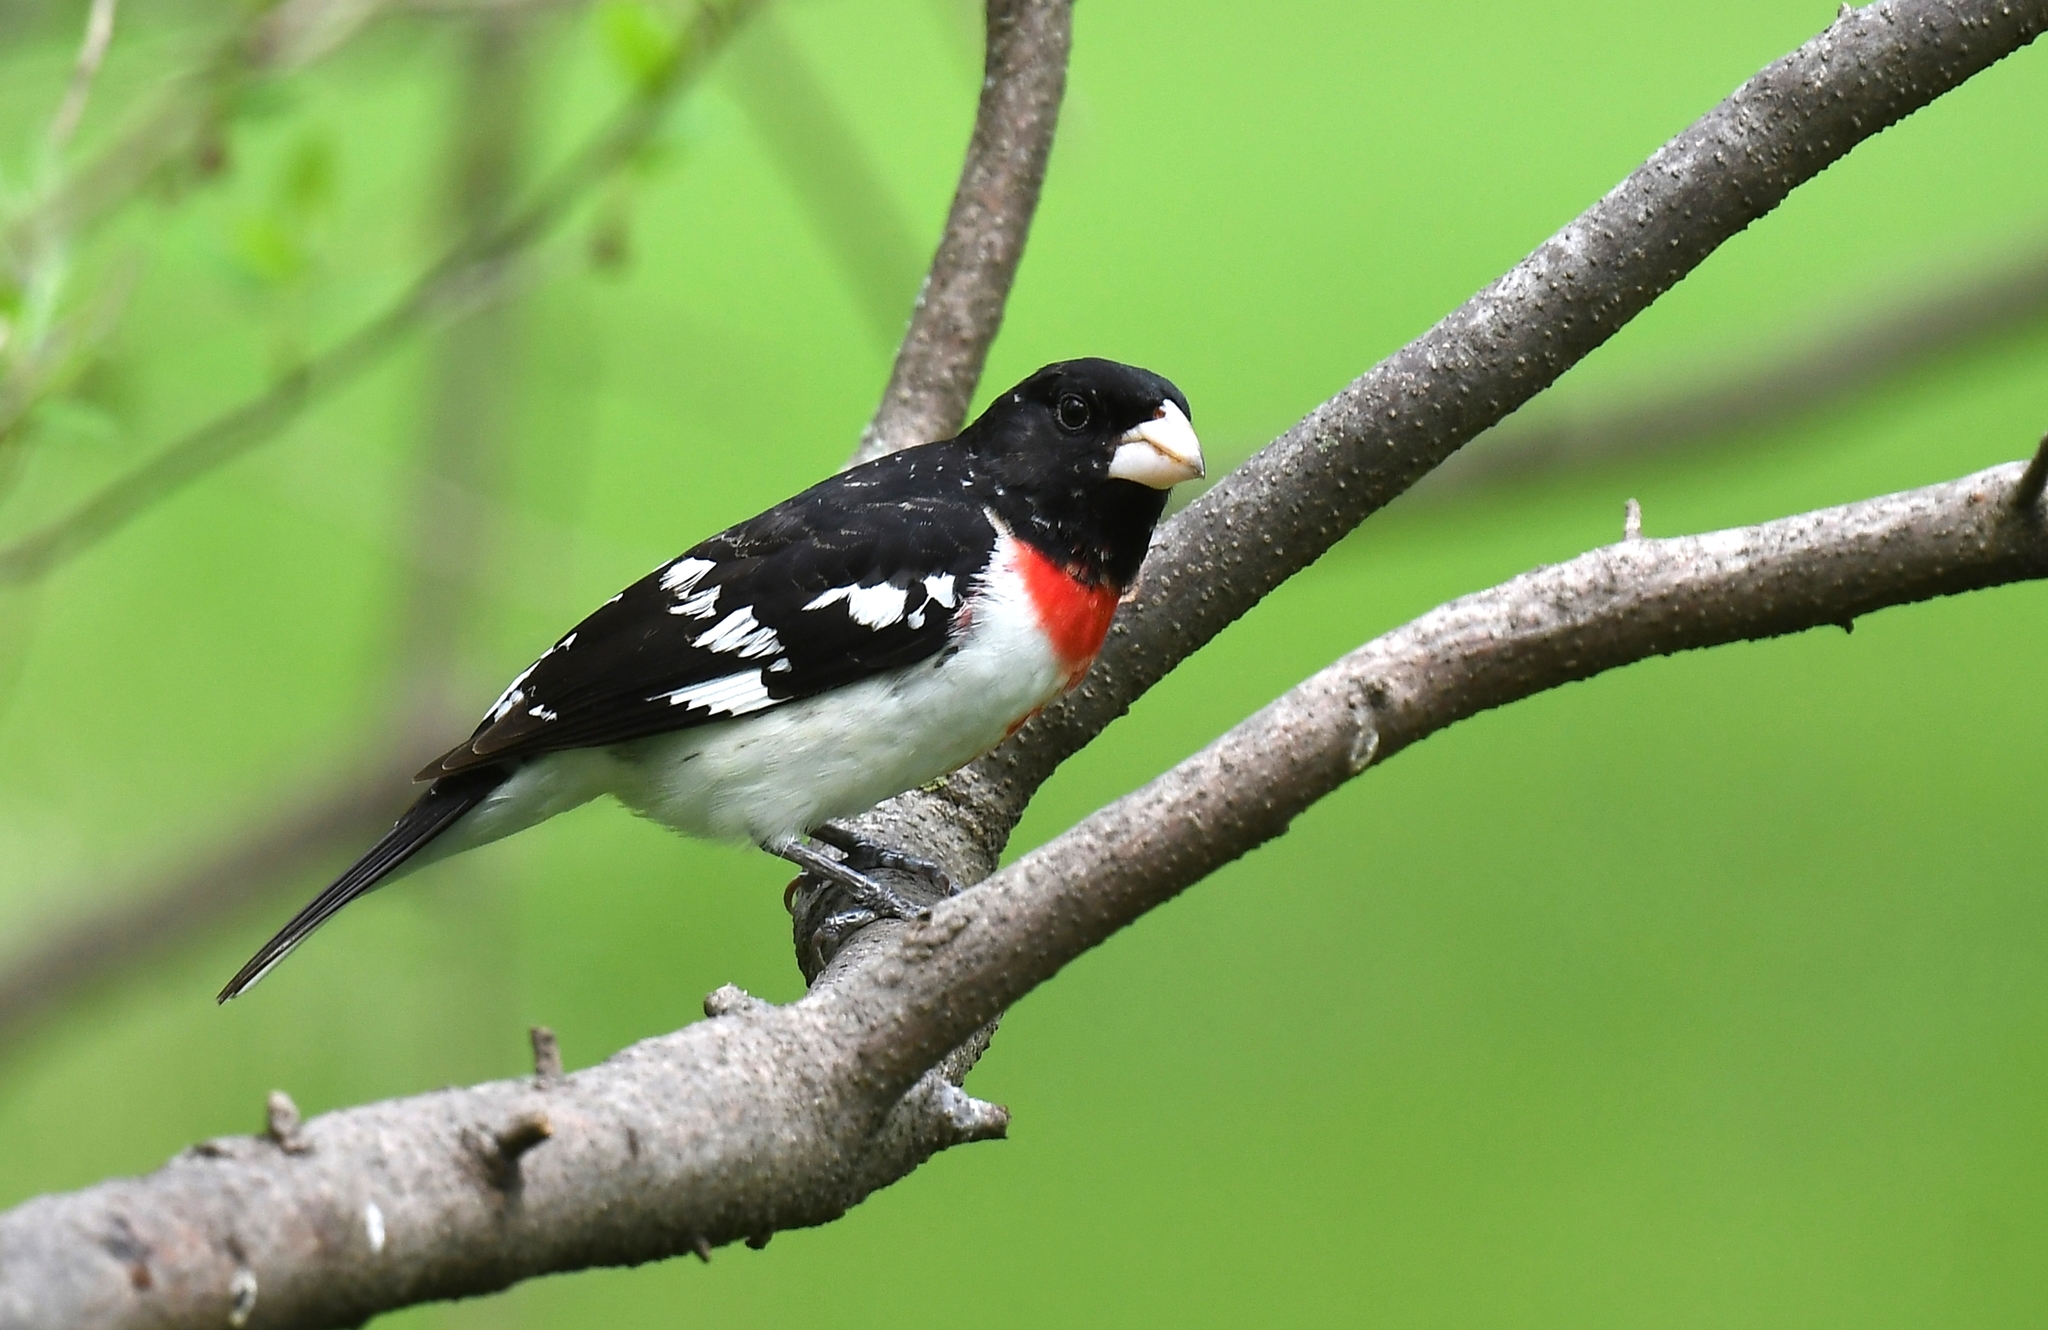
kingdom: Animalia
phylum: Chordata
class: Aves
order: Passeriformes
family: Cardinalidae
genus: Pheucticus
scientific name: Pheucticus ludovicianus
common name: Rose-breasted grosbeak
